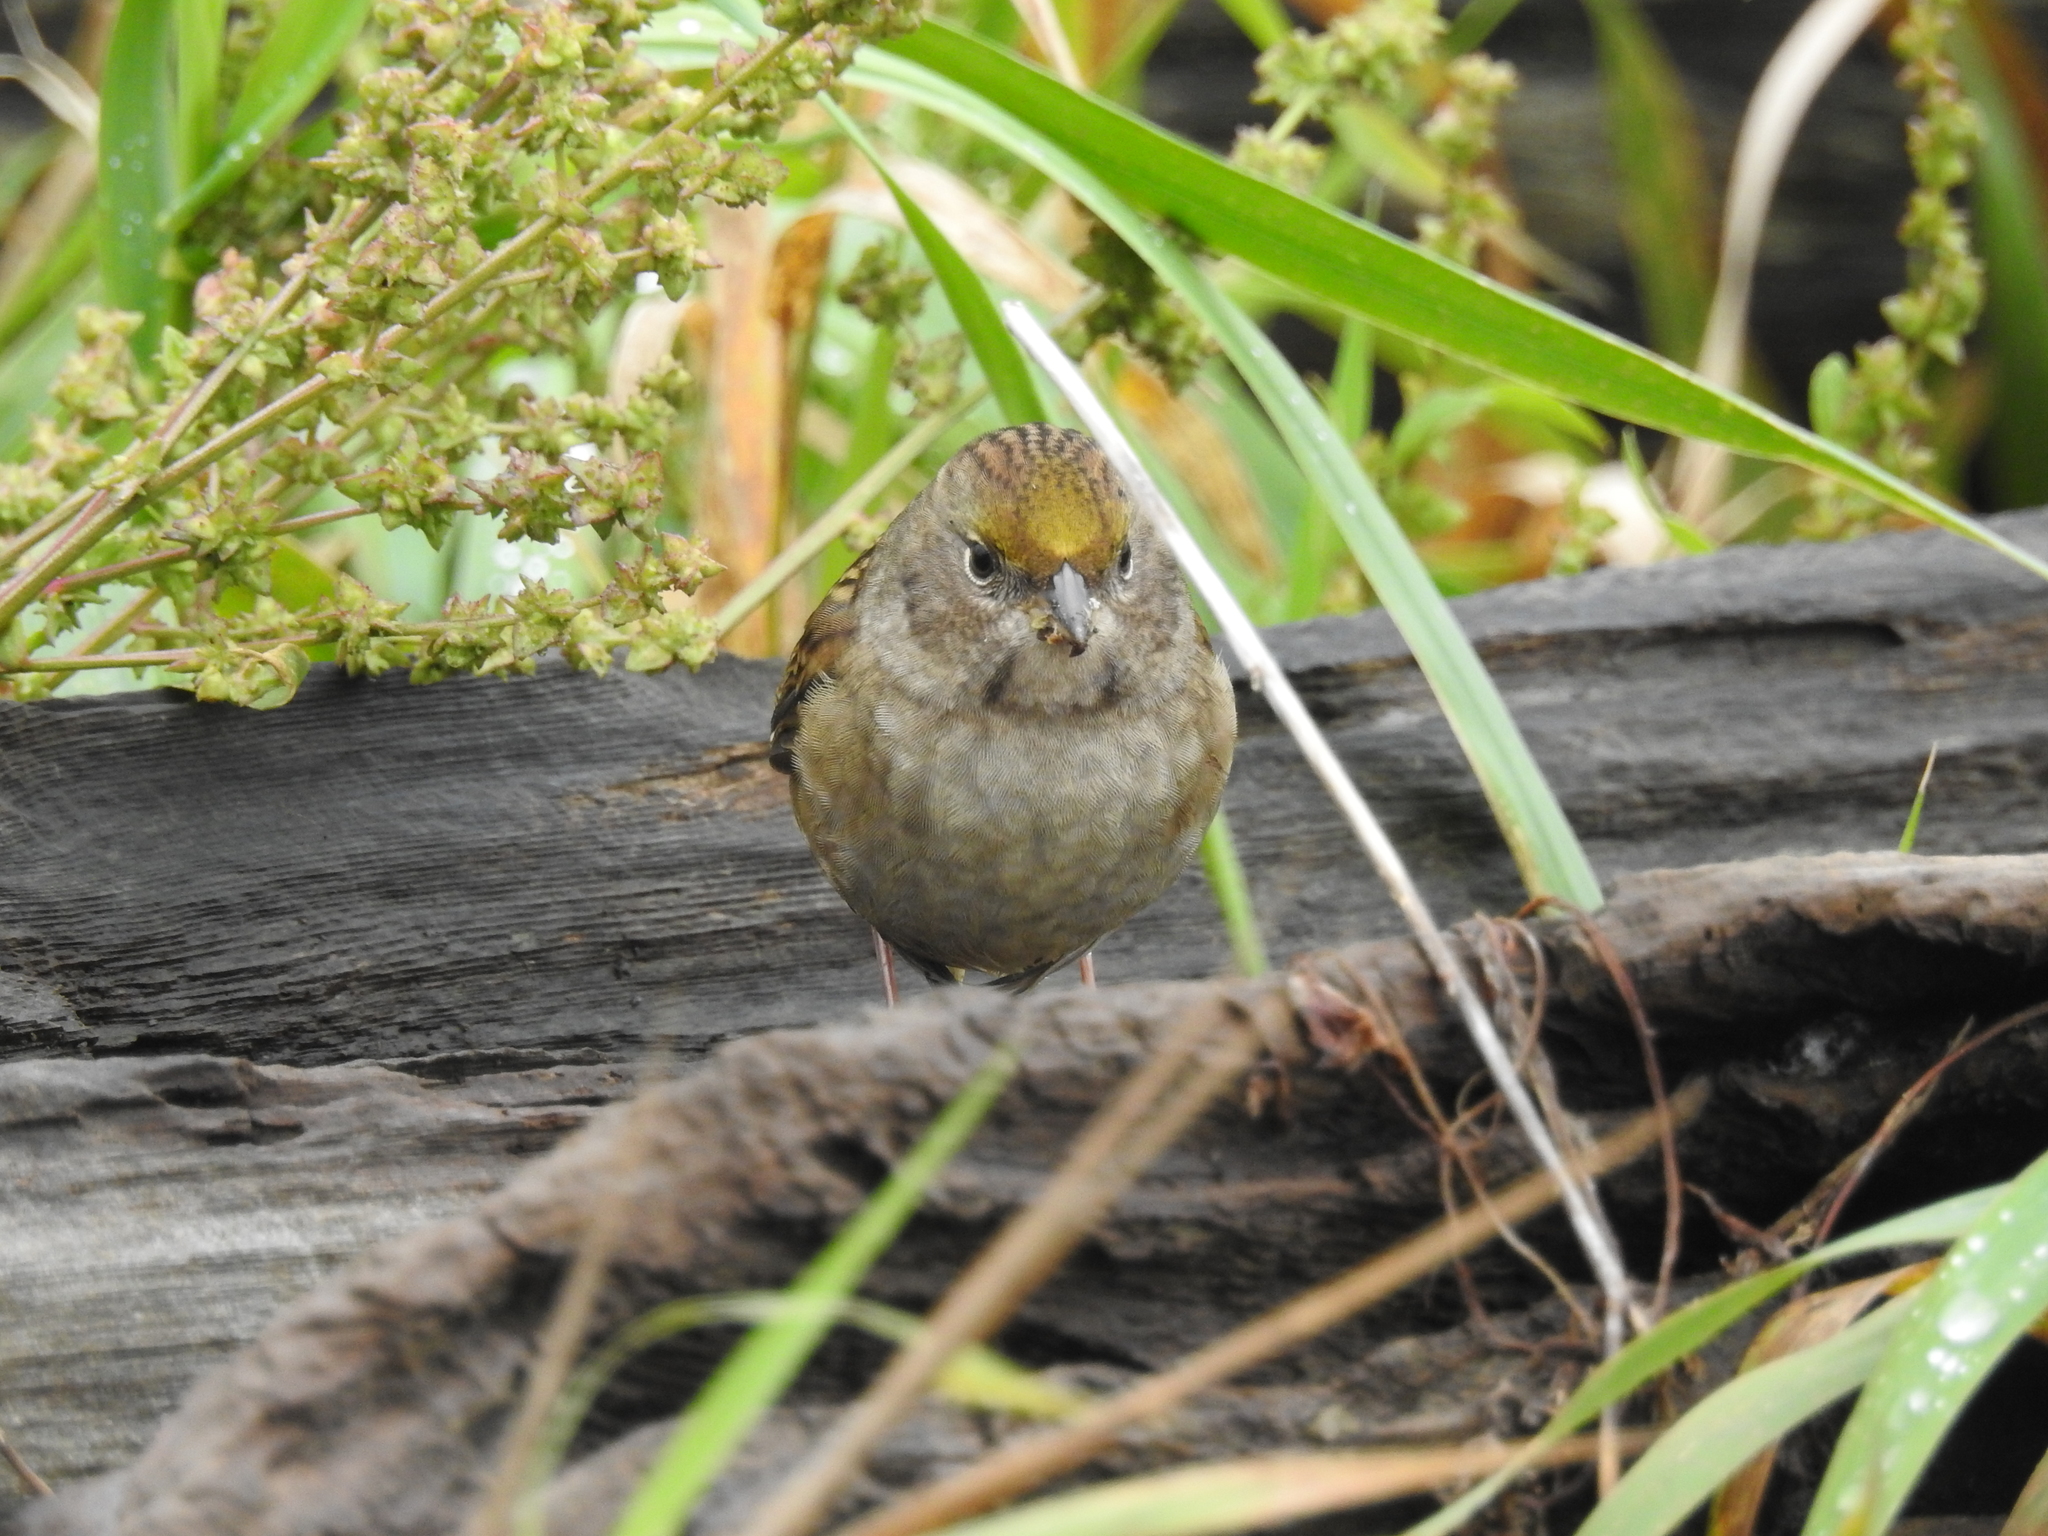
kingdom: Animalia
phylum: Chordata
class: Aves
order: Passeriformes
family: Passerellidae
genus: Zonotrichia
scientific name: Zonotrichia atricapilla
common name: Golden-crowned sparrow
